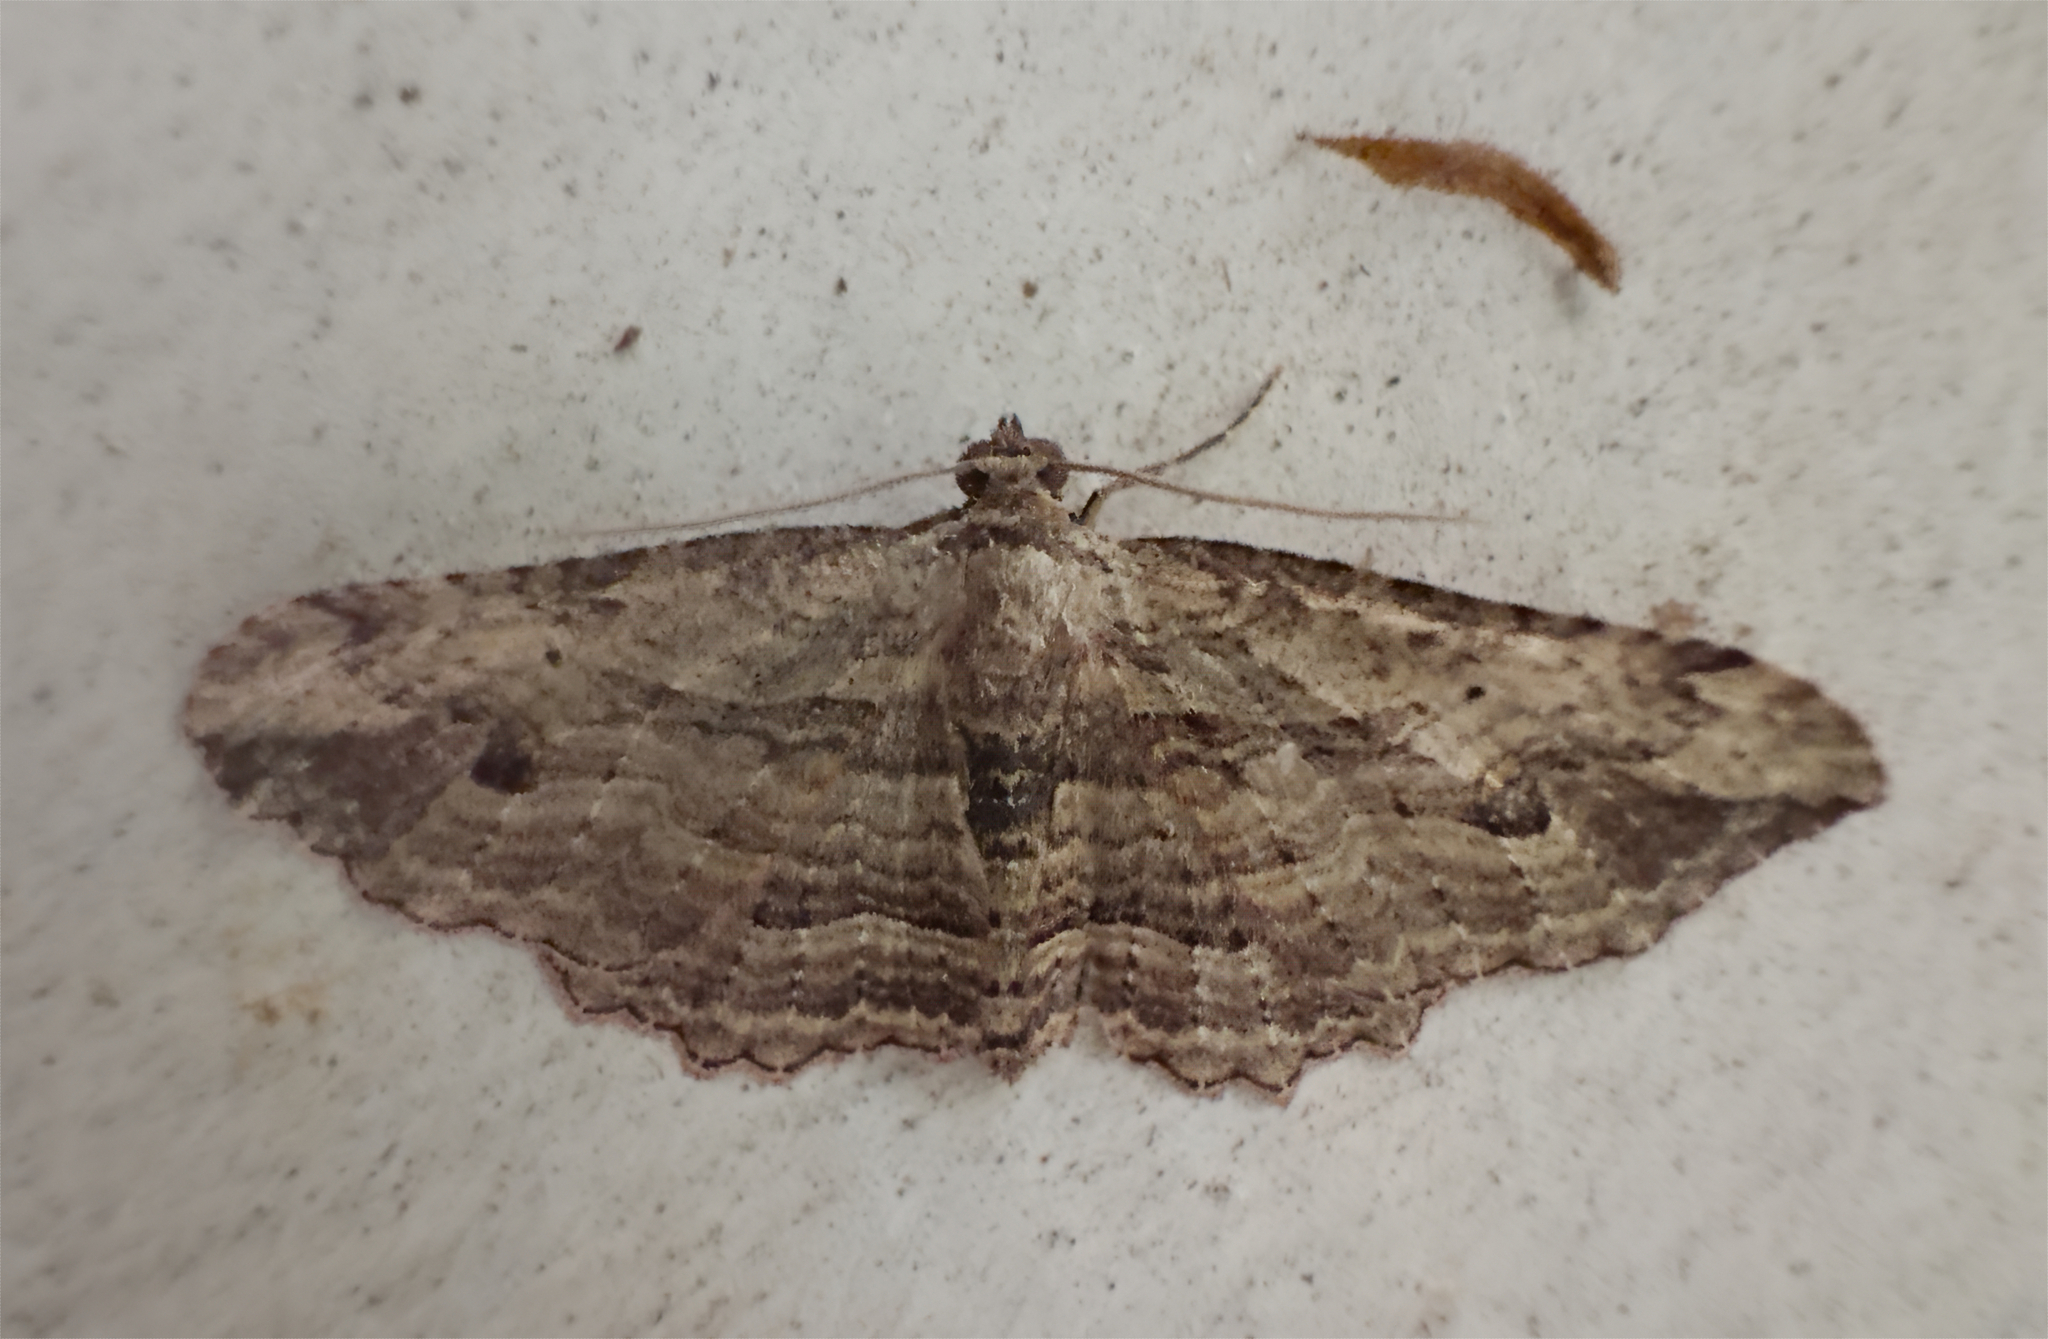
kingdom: Animalia
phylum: Arthropoda
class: Insecta
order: Lepidoptera
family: Geometridae
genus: Austrocidaria
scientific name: Austrocidaria bipartita
